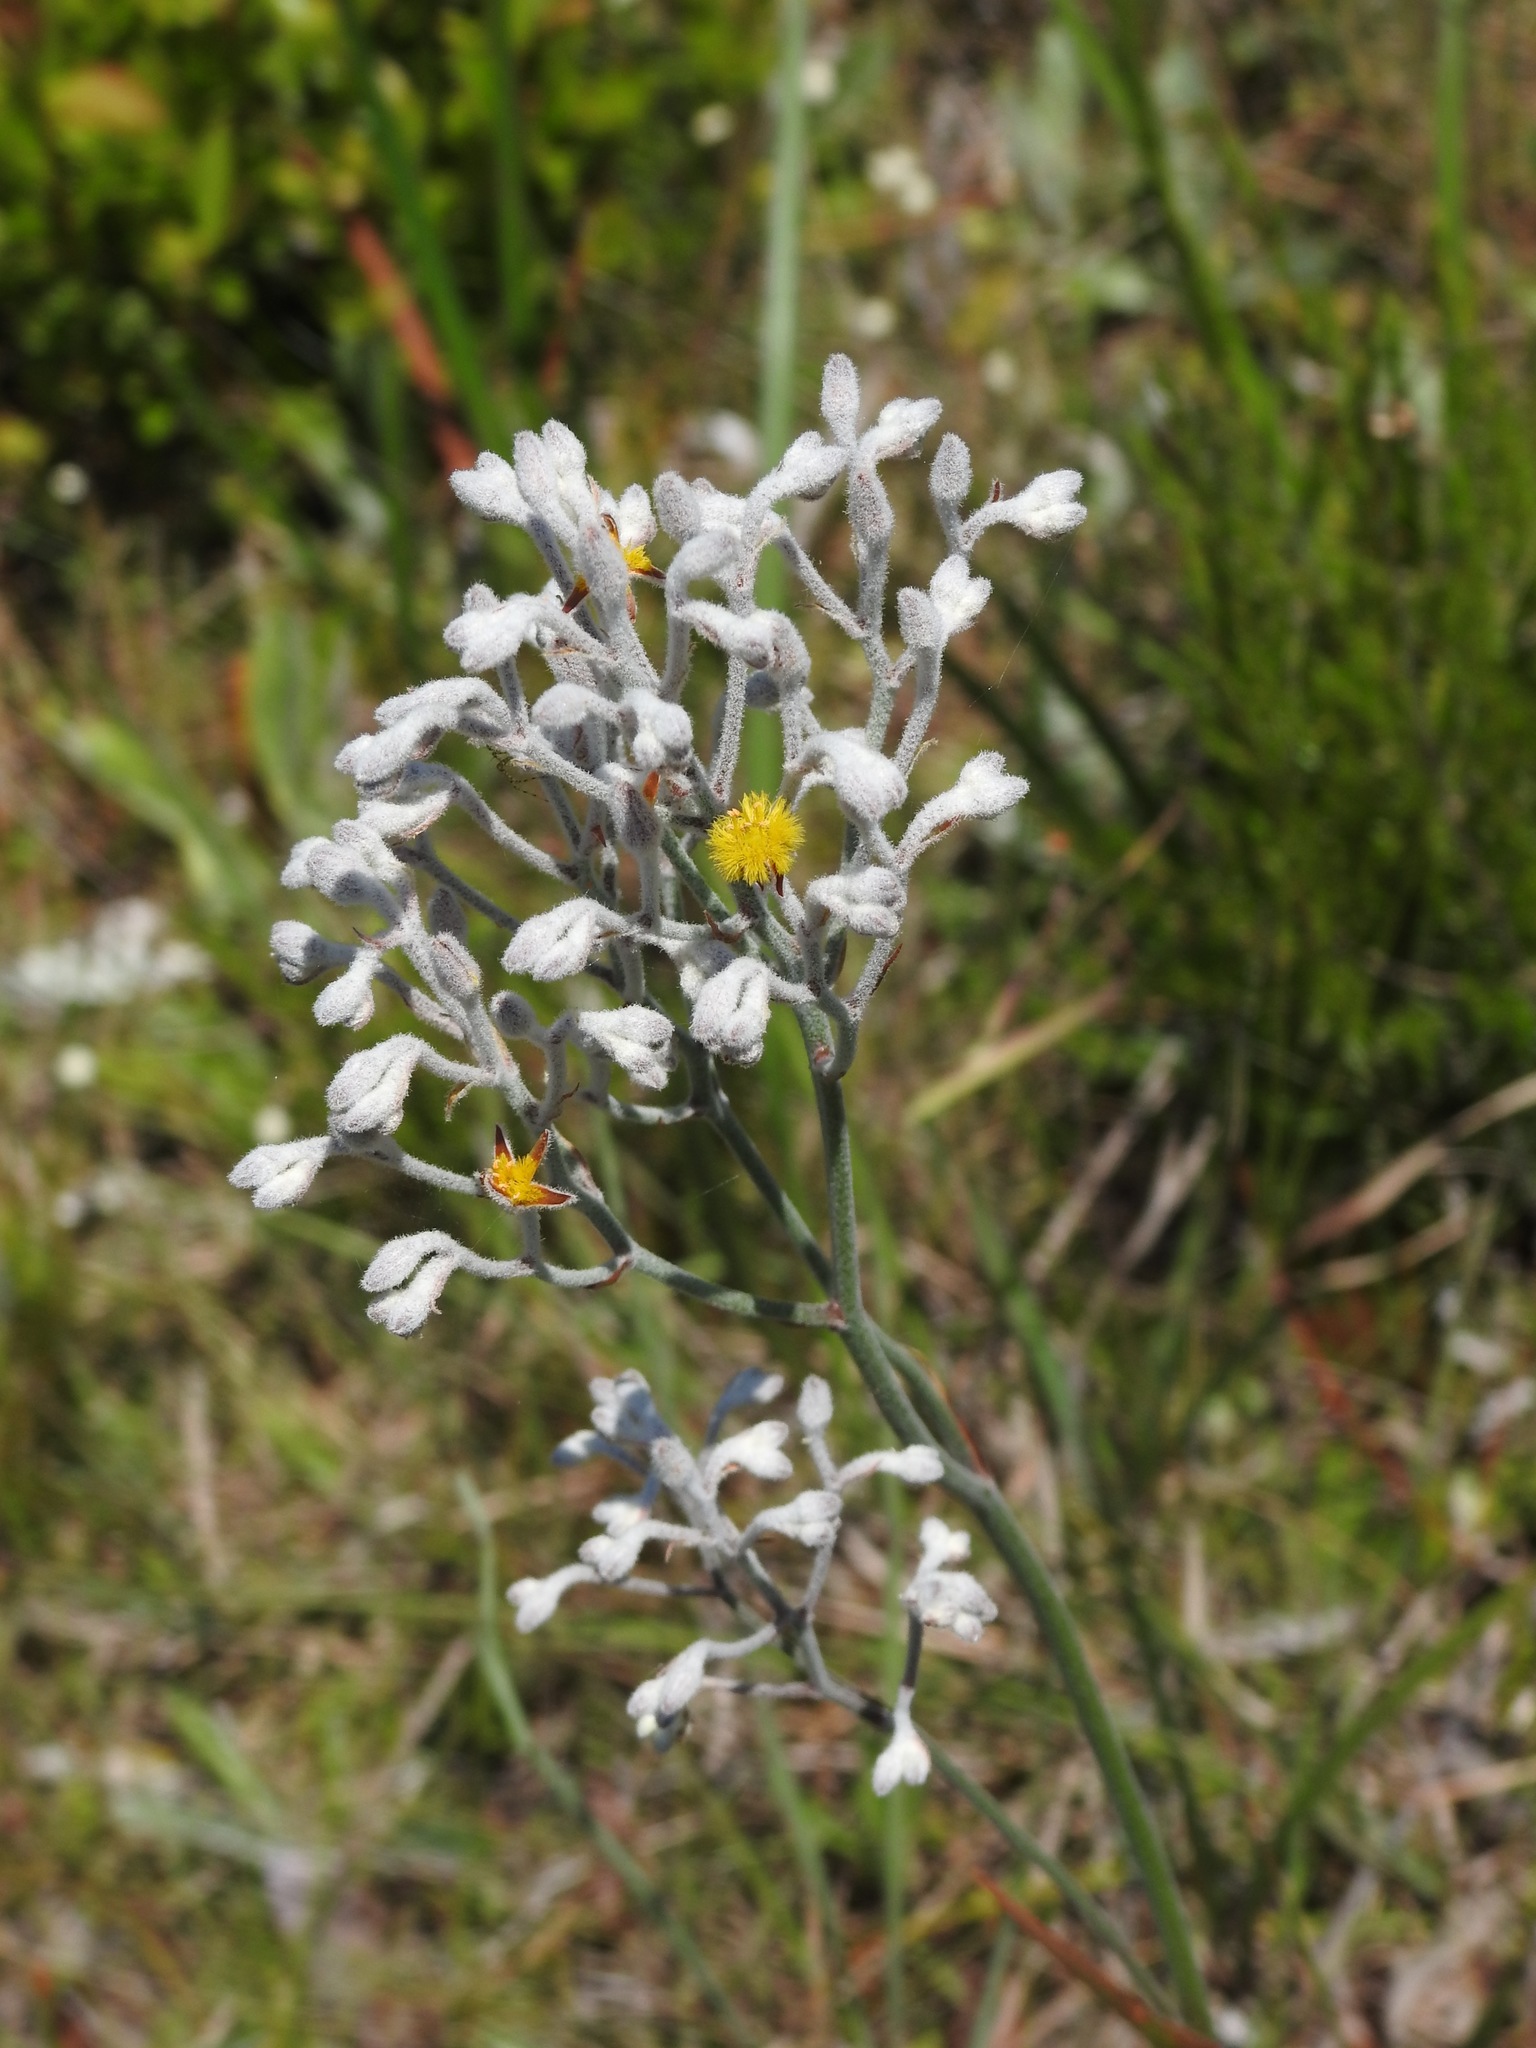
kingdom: Plantae
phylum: Tracheophyta
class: Liliopsida
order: Dioscoreales
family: Nartheciaceae
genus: Lophiola
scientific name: Lophiola aurea
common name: Golden-crest
